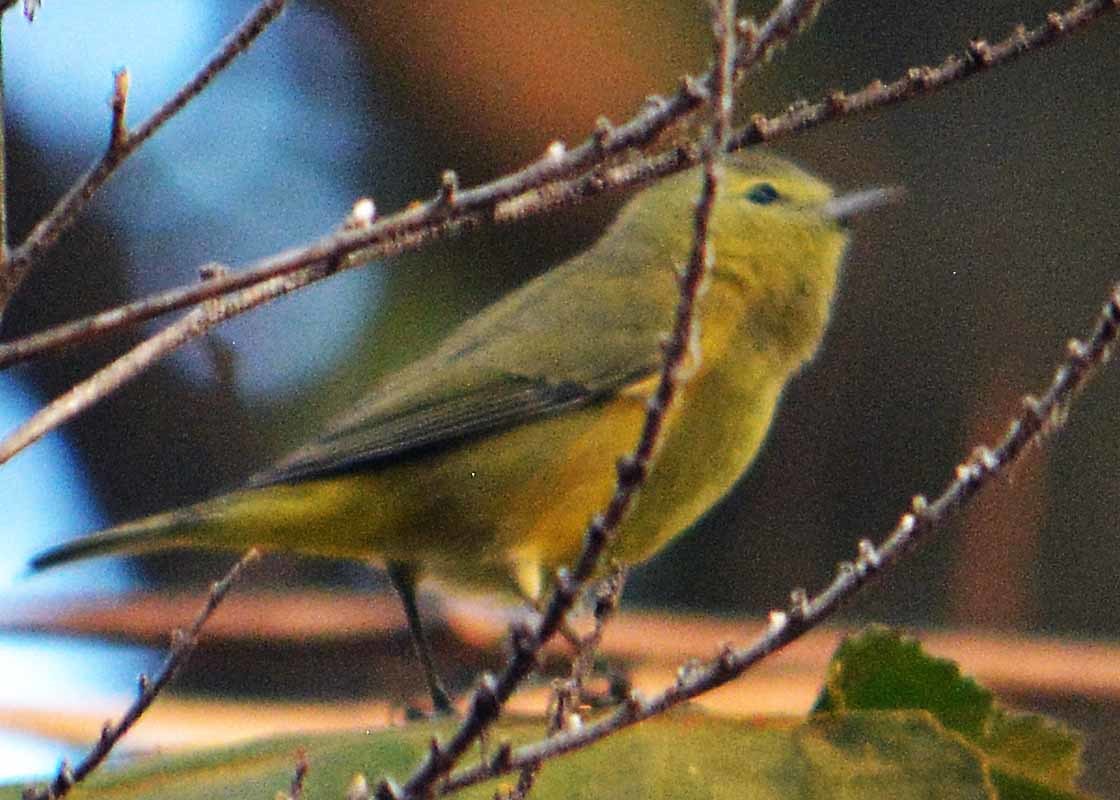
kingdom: Animalia
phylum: Chordata
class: Aves
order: Passeriformes
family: Parulidae
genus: Leiothlypis
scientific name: Leiothlypis celata
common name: Orange-crowned warbler
